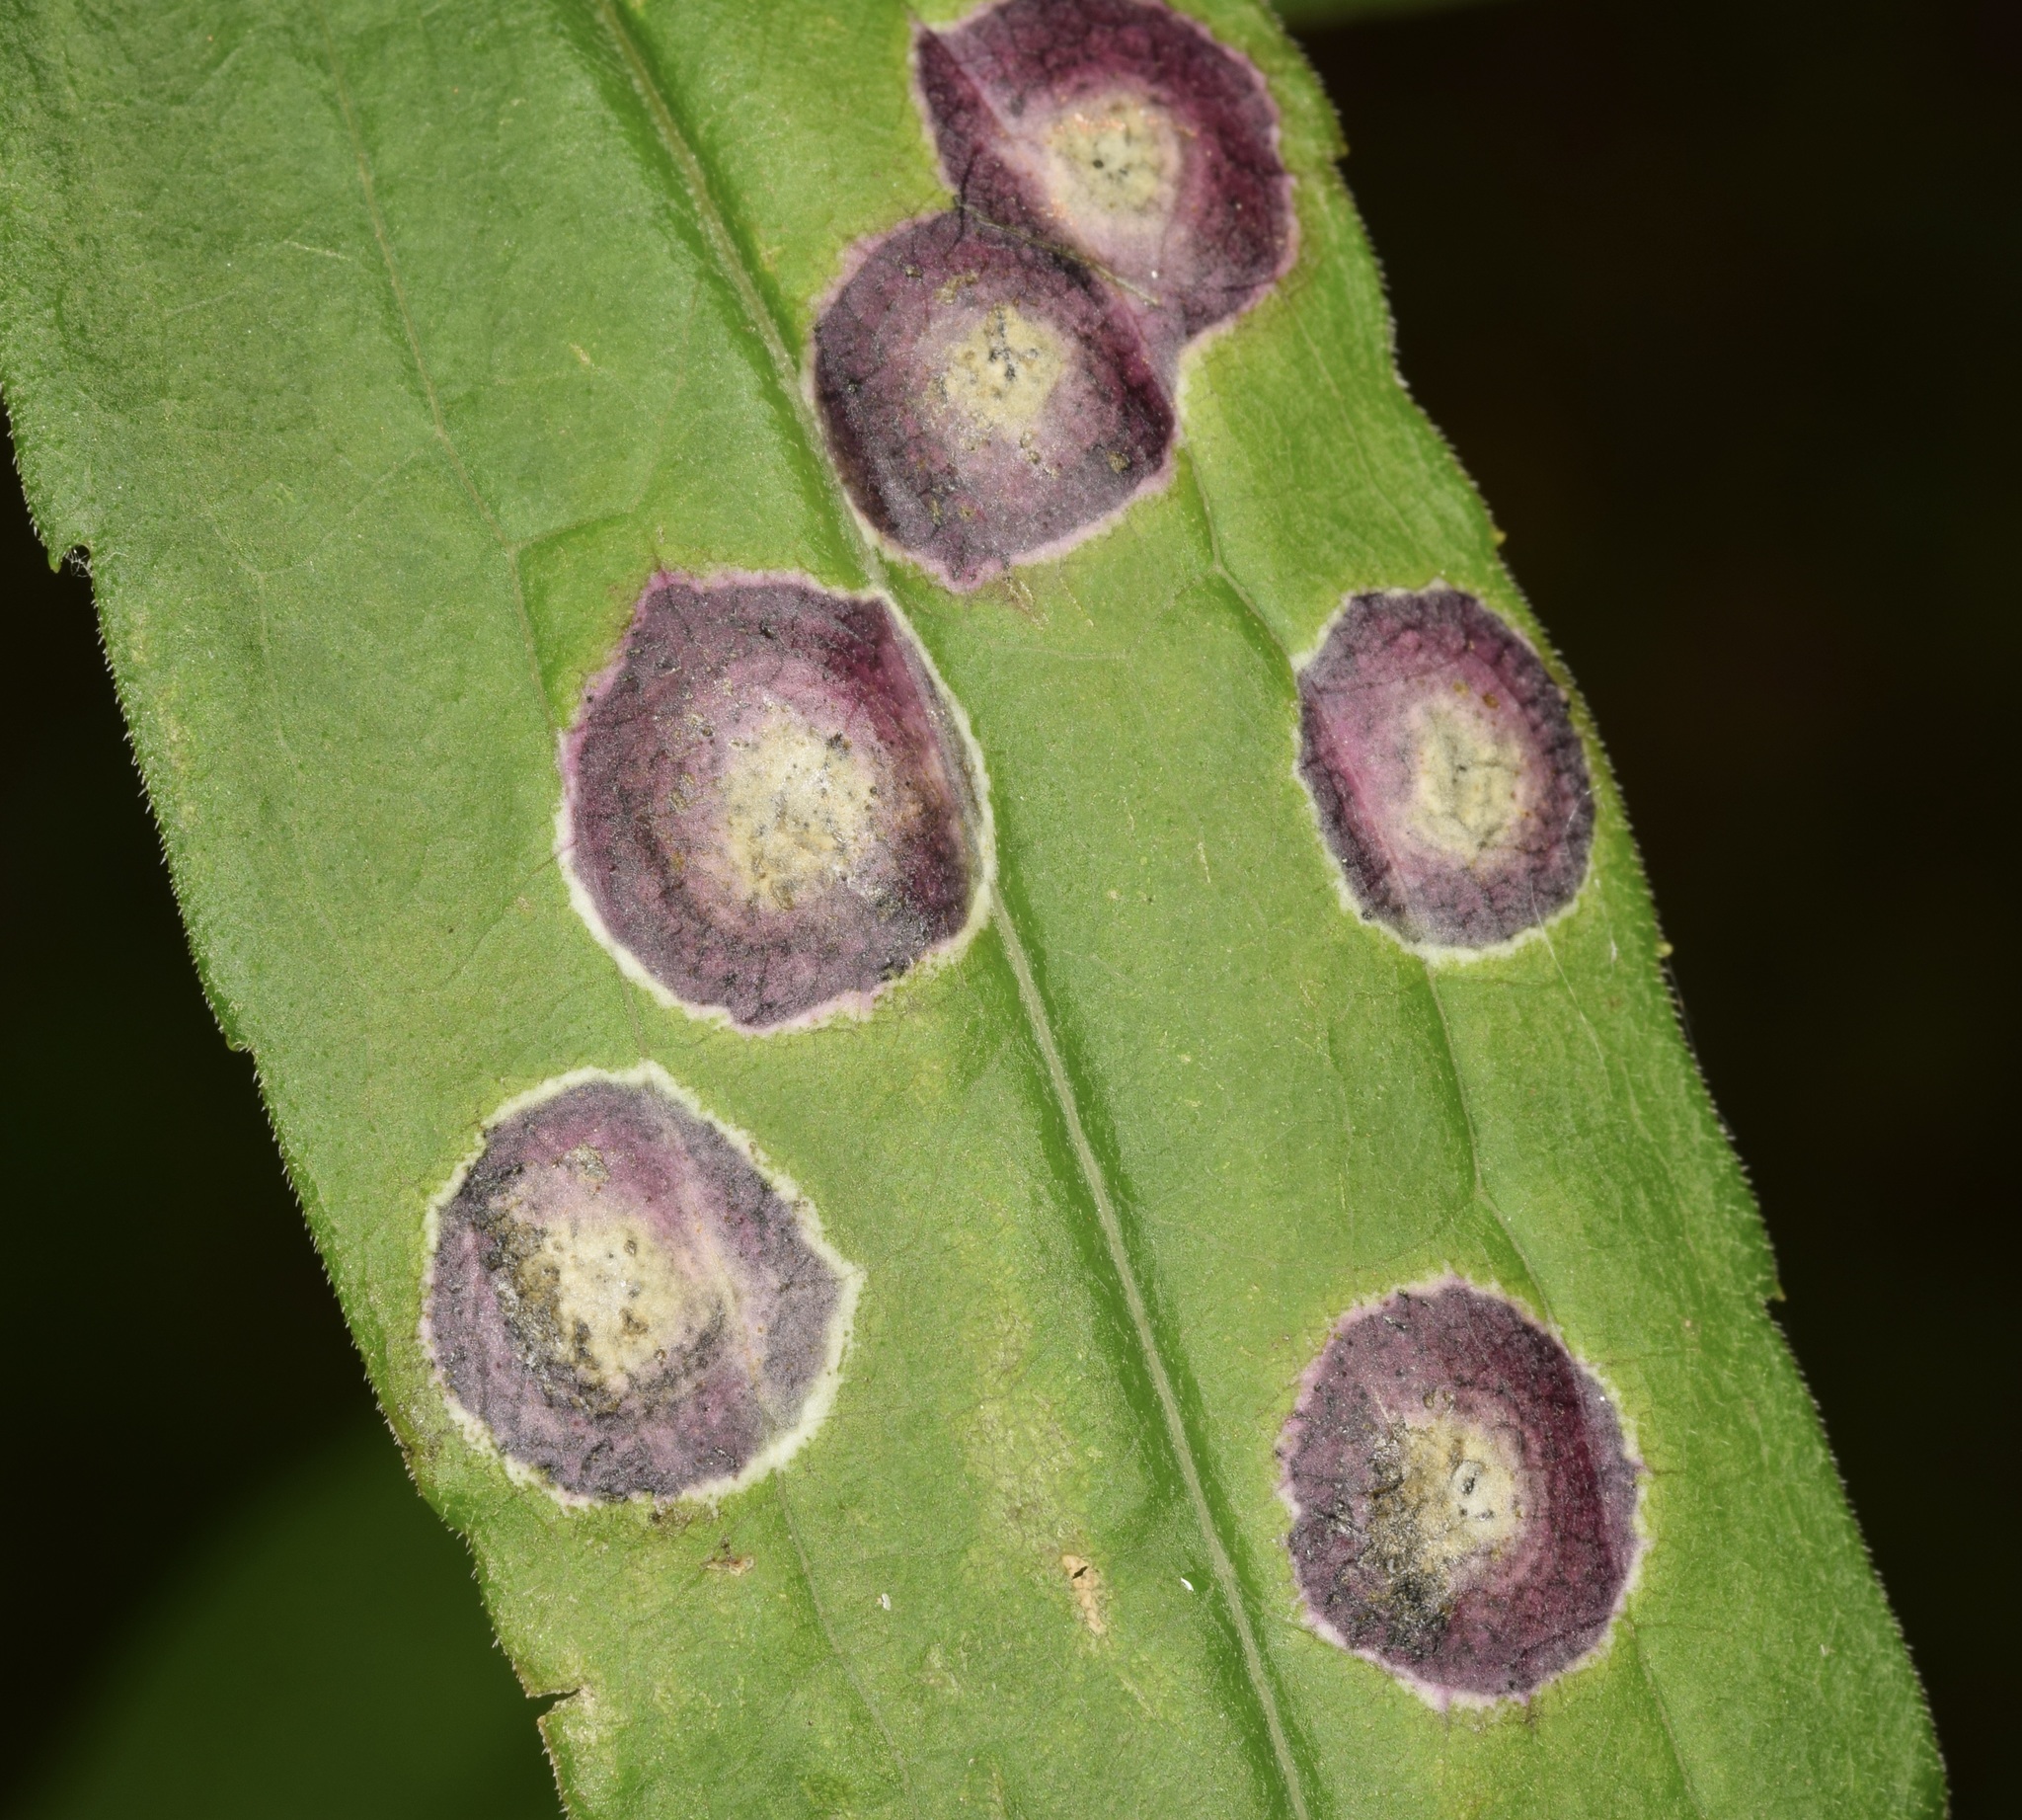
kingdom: Animalia
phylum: Arthropoda
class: Insecta
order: Diptera
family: Cecidomyiidae
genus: Asteromyia
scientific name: Asteromyia carbonifera
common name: Carbonifera goldenrod gall midge
